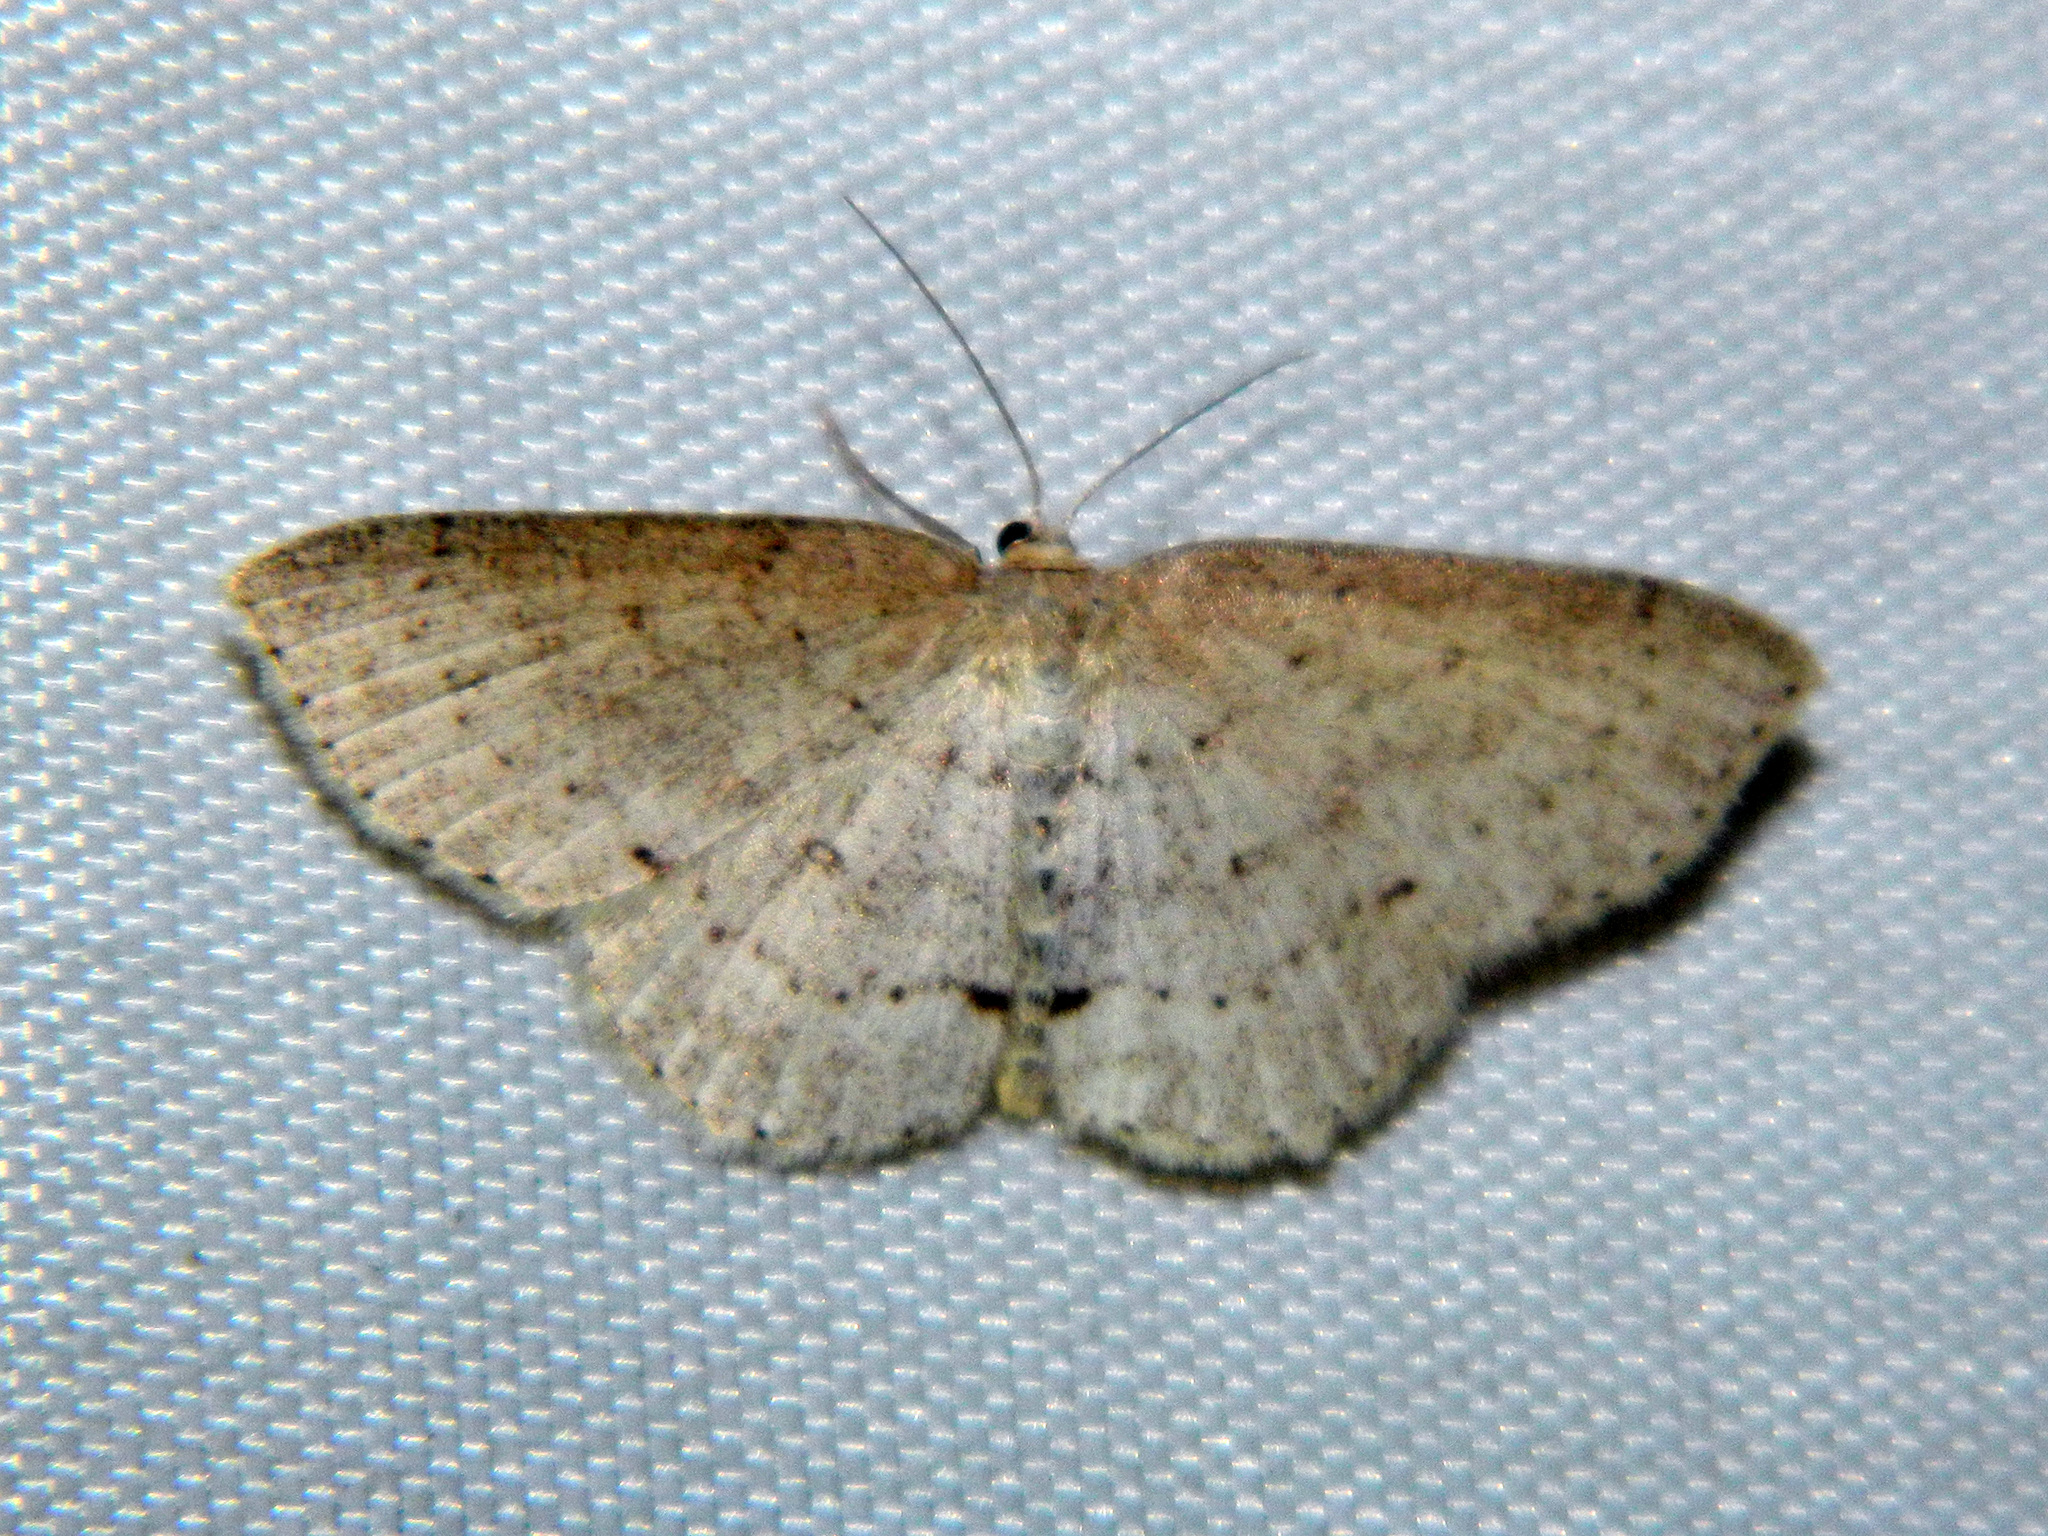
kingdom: Animalia
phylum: Arthropoda
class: Insecta
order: Lepidoptera
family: Geometridae
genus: Cyclophora
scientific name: Cyclophora pendulinaria
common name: Sweet fern geometer
